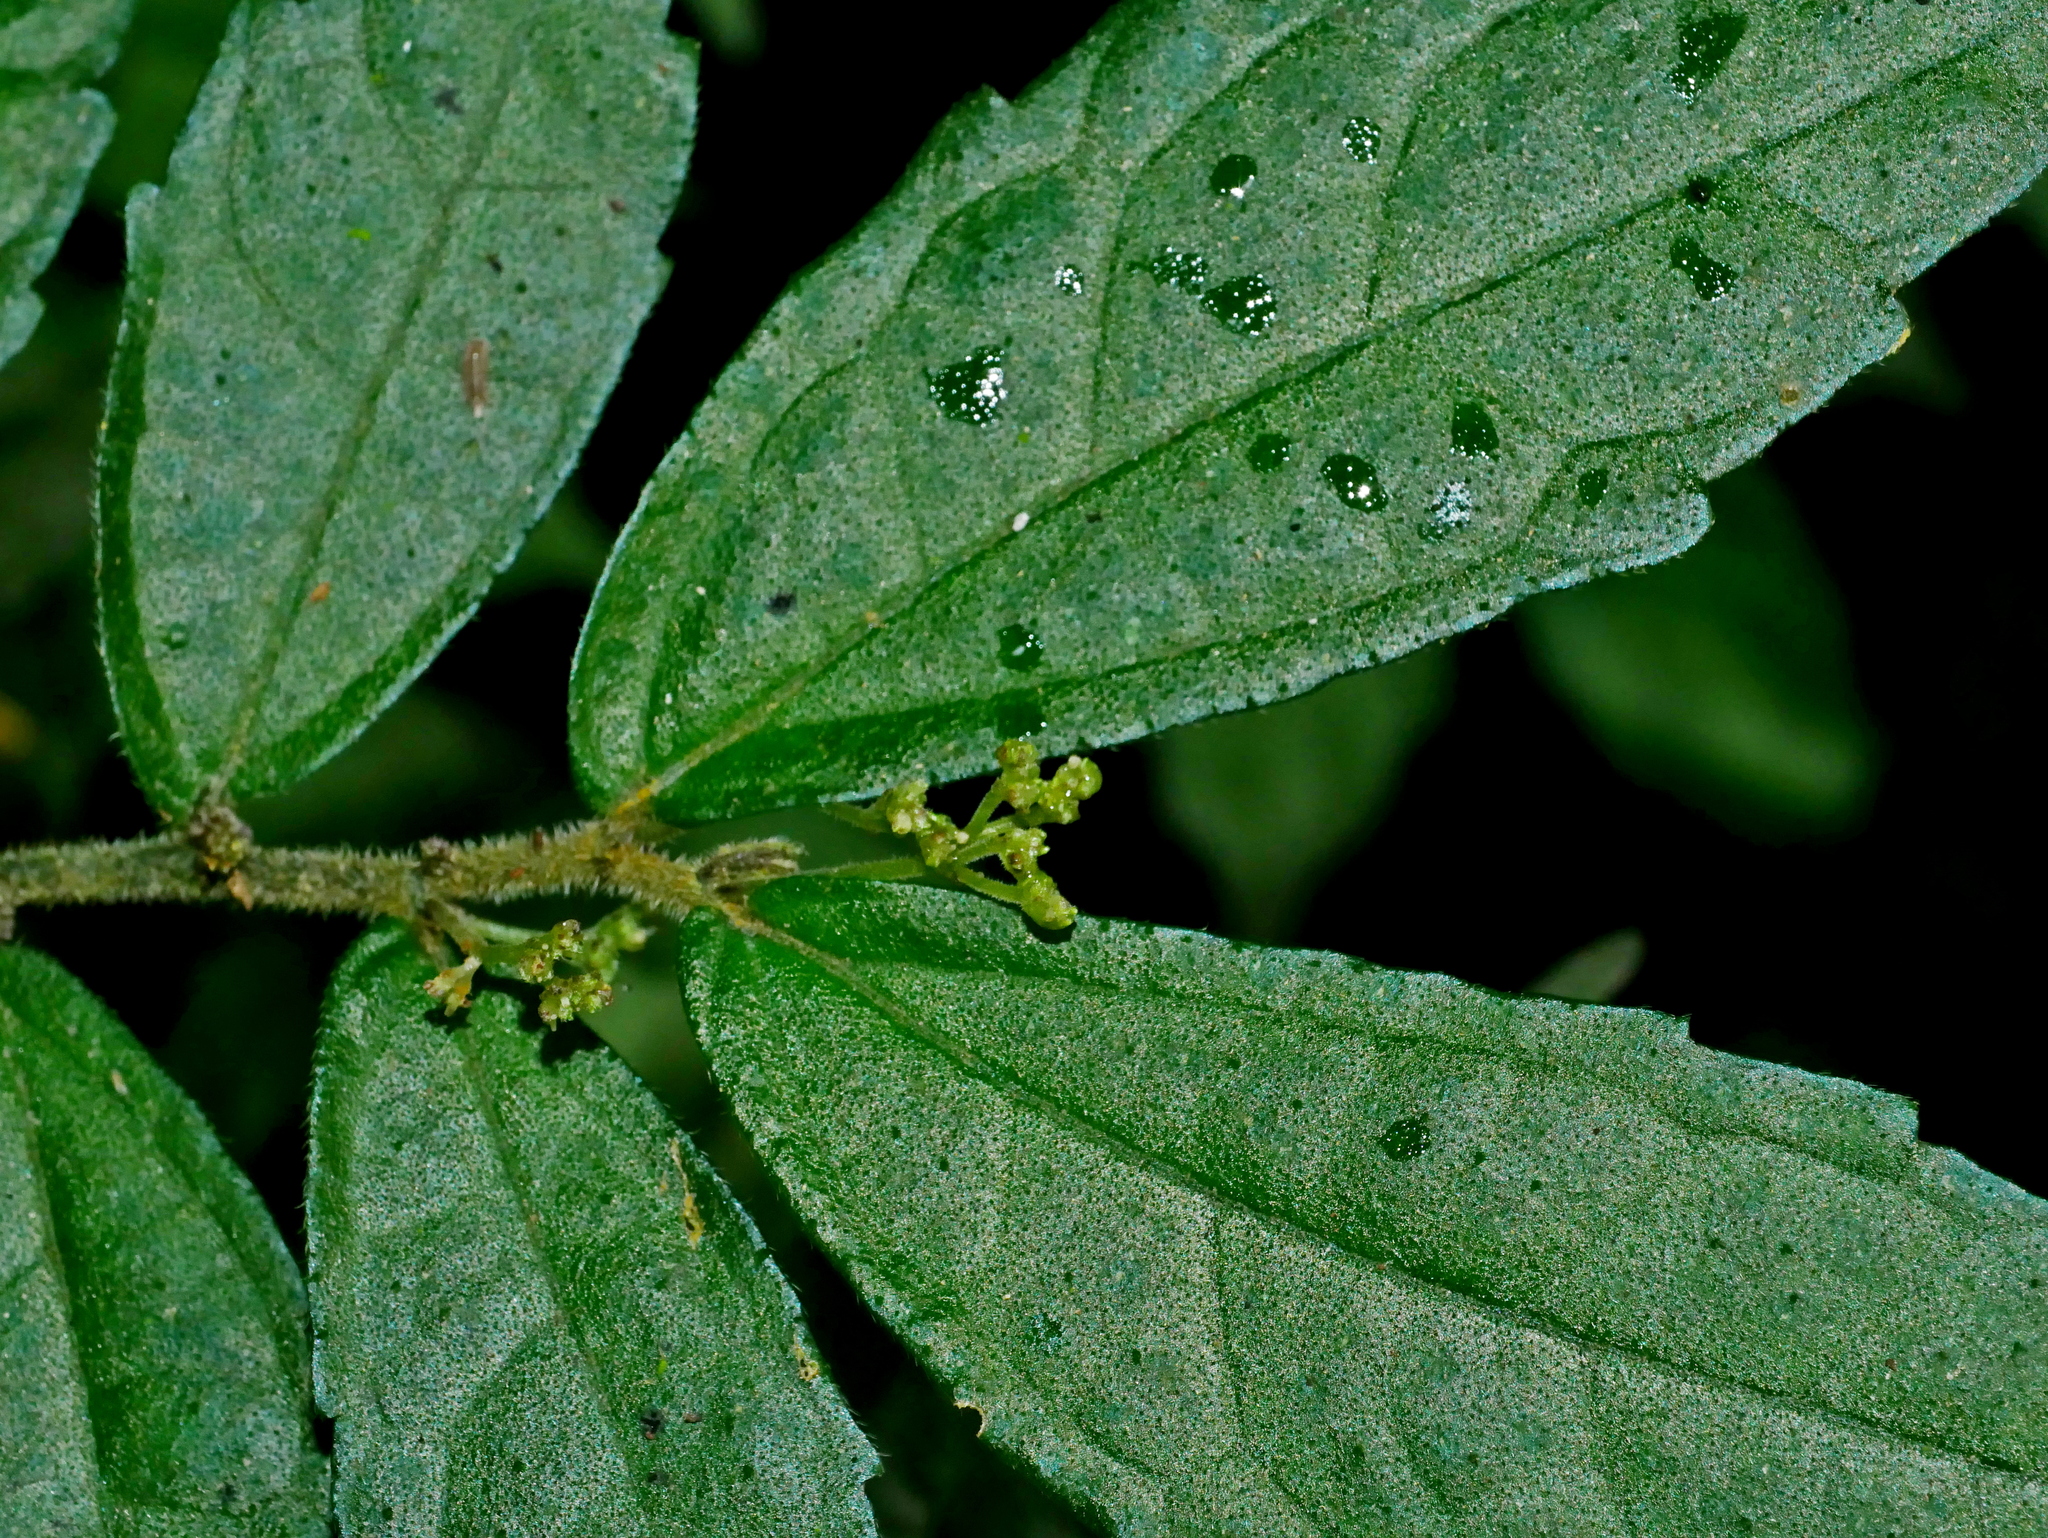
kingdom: Plantae
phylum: Tracheophyta
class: Magnoliopsida
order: Rosales
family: Urticaceae
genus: Elatostema
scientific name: Elatostema scabrum
